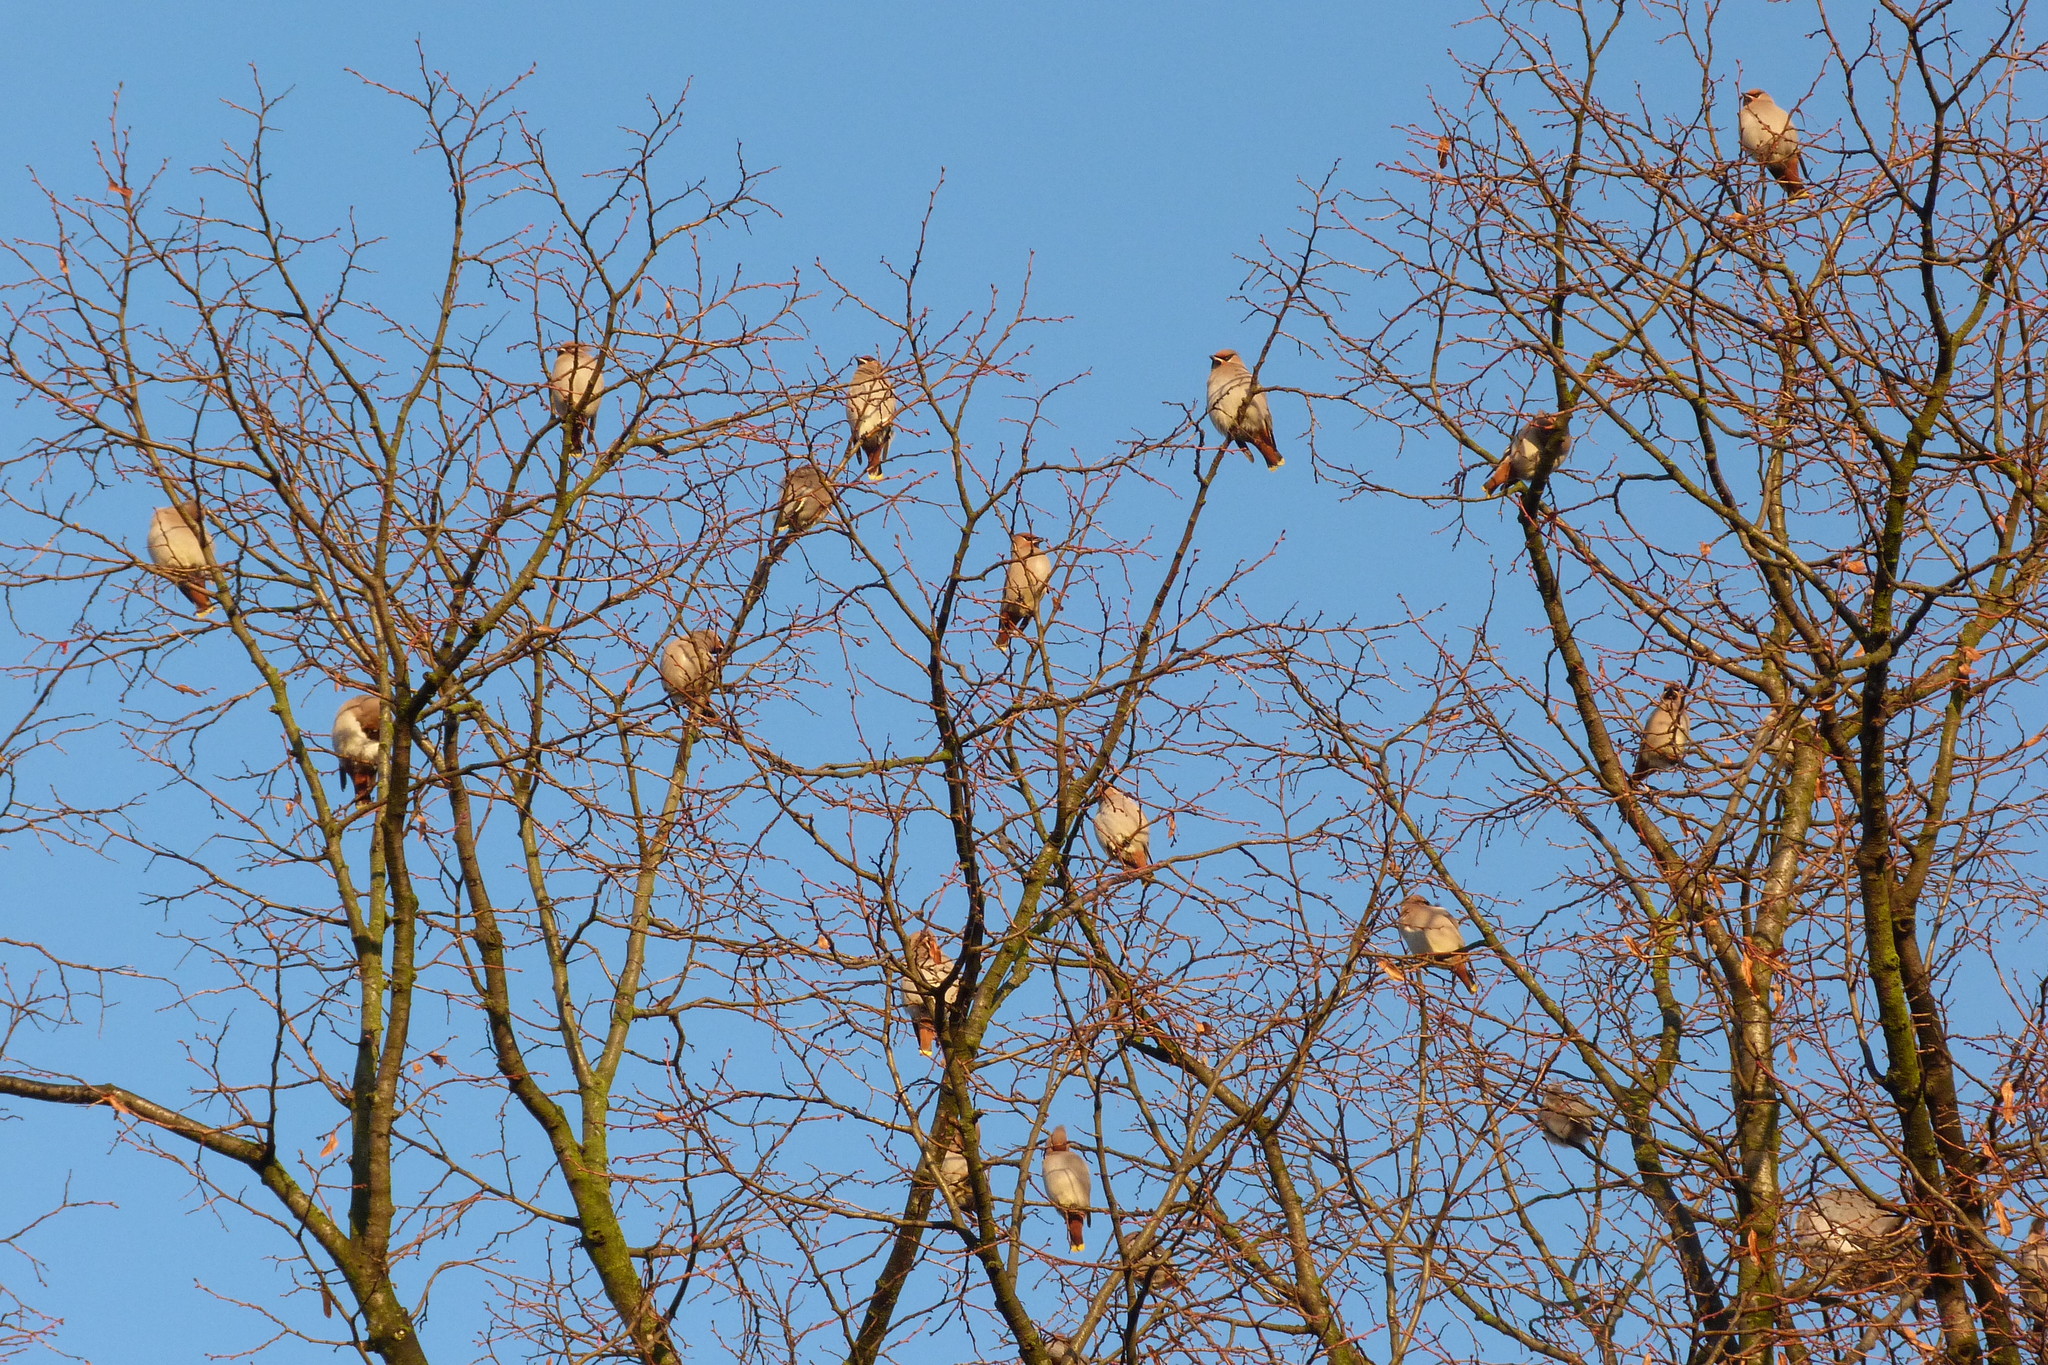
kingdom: Animalia
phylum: Chordata
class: Aves
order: Passeriformes
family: Bombycillidae
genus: Bombycilla
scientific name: Bombycilla garrulus
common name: Bohemian waxwing
